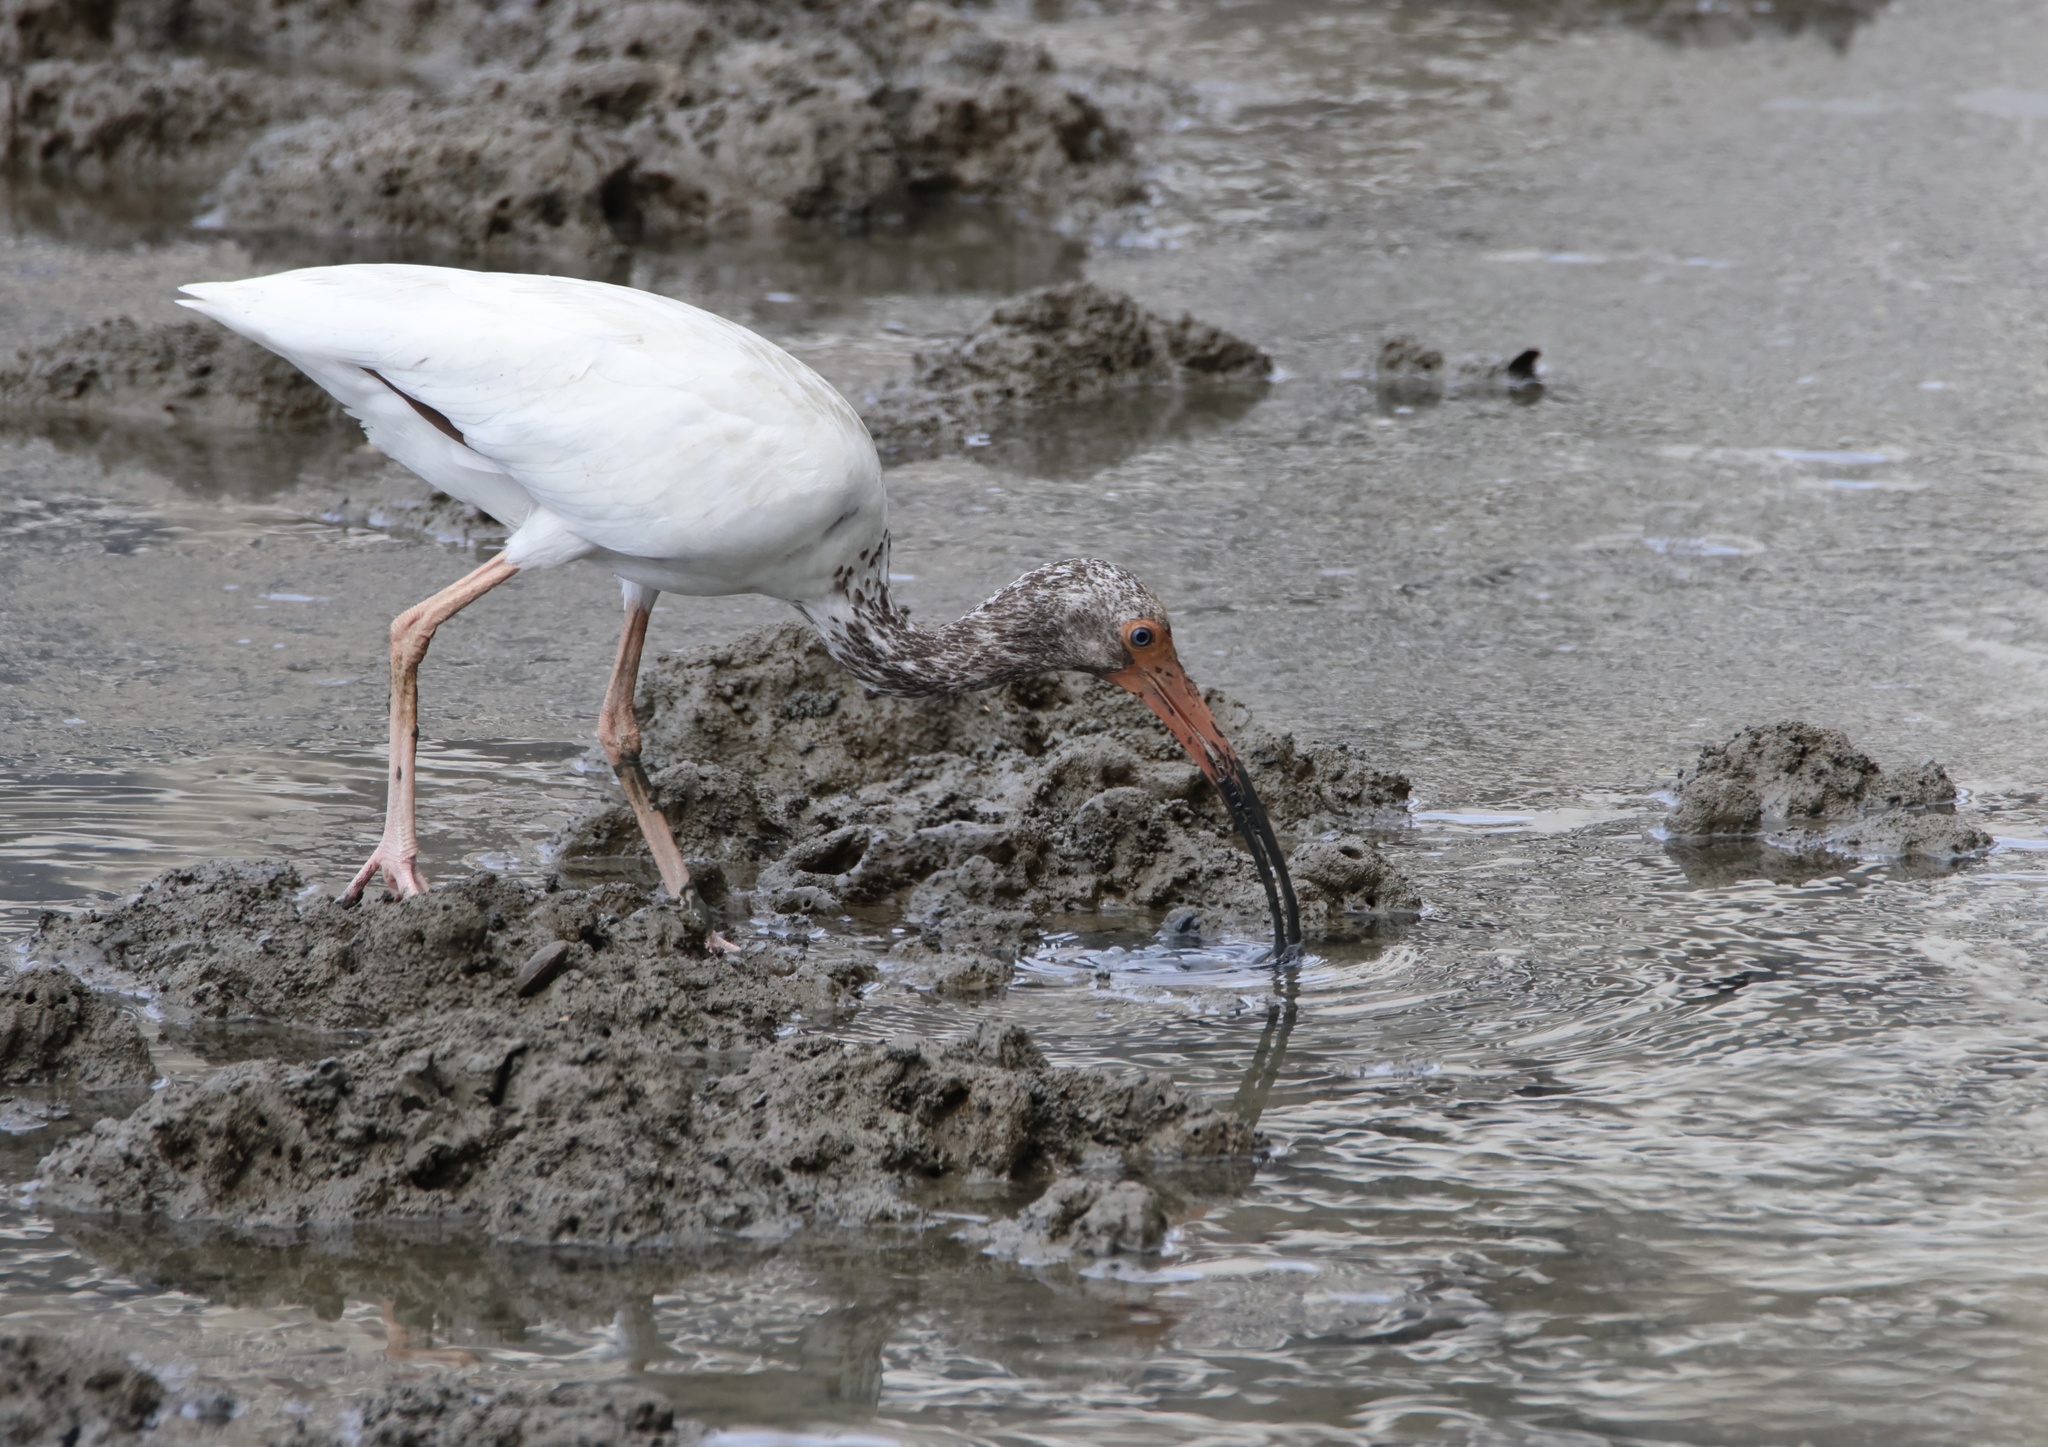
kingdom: Animalia
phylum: Chordata
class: Aves
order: Pelecaniformes
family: Threskiornithidae
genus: Eudocimus
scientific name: Eudocimus albus
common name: White ibis
